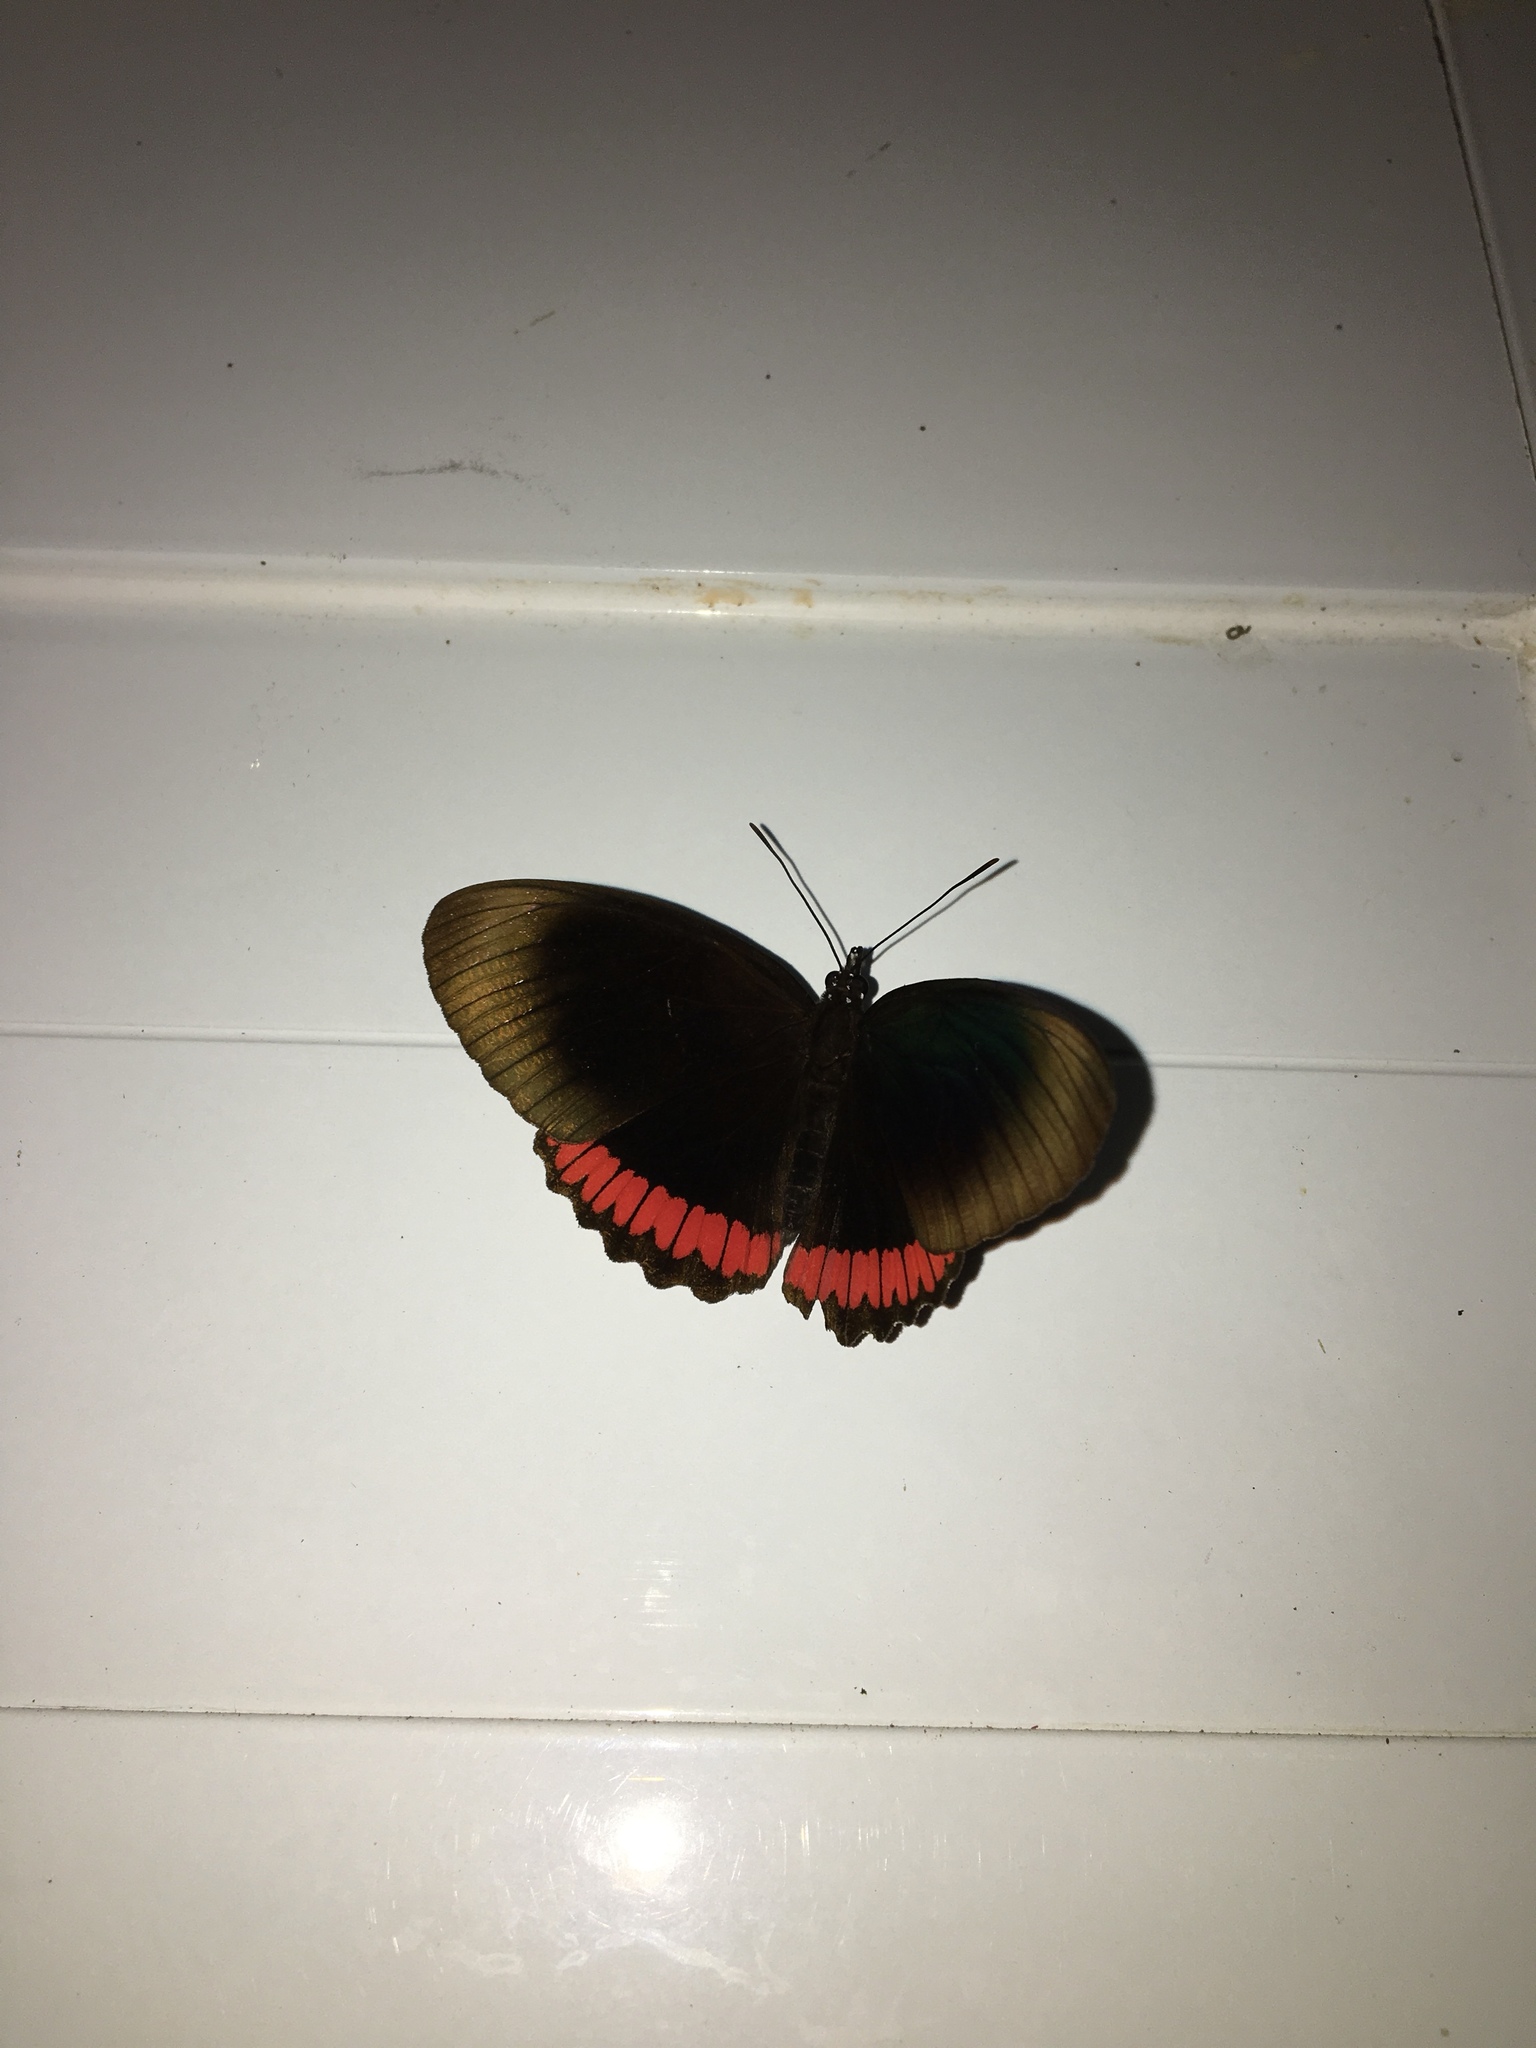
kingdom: Animalia
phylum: Arthropoda
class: Insecta
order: Lepidoptera
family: Sesiidae
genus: Sesia
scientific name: Sesia Biblis hyperia
